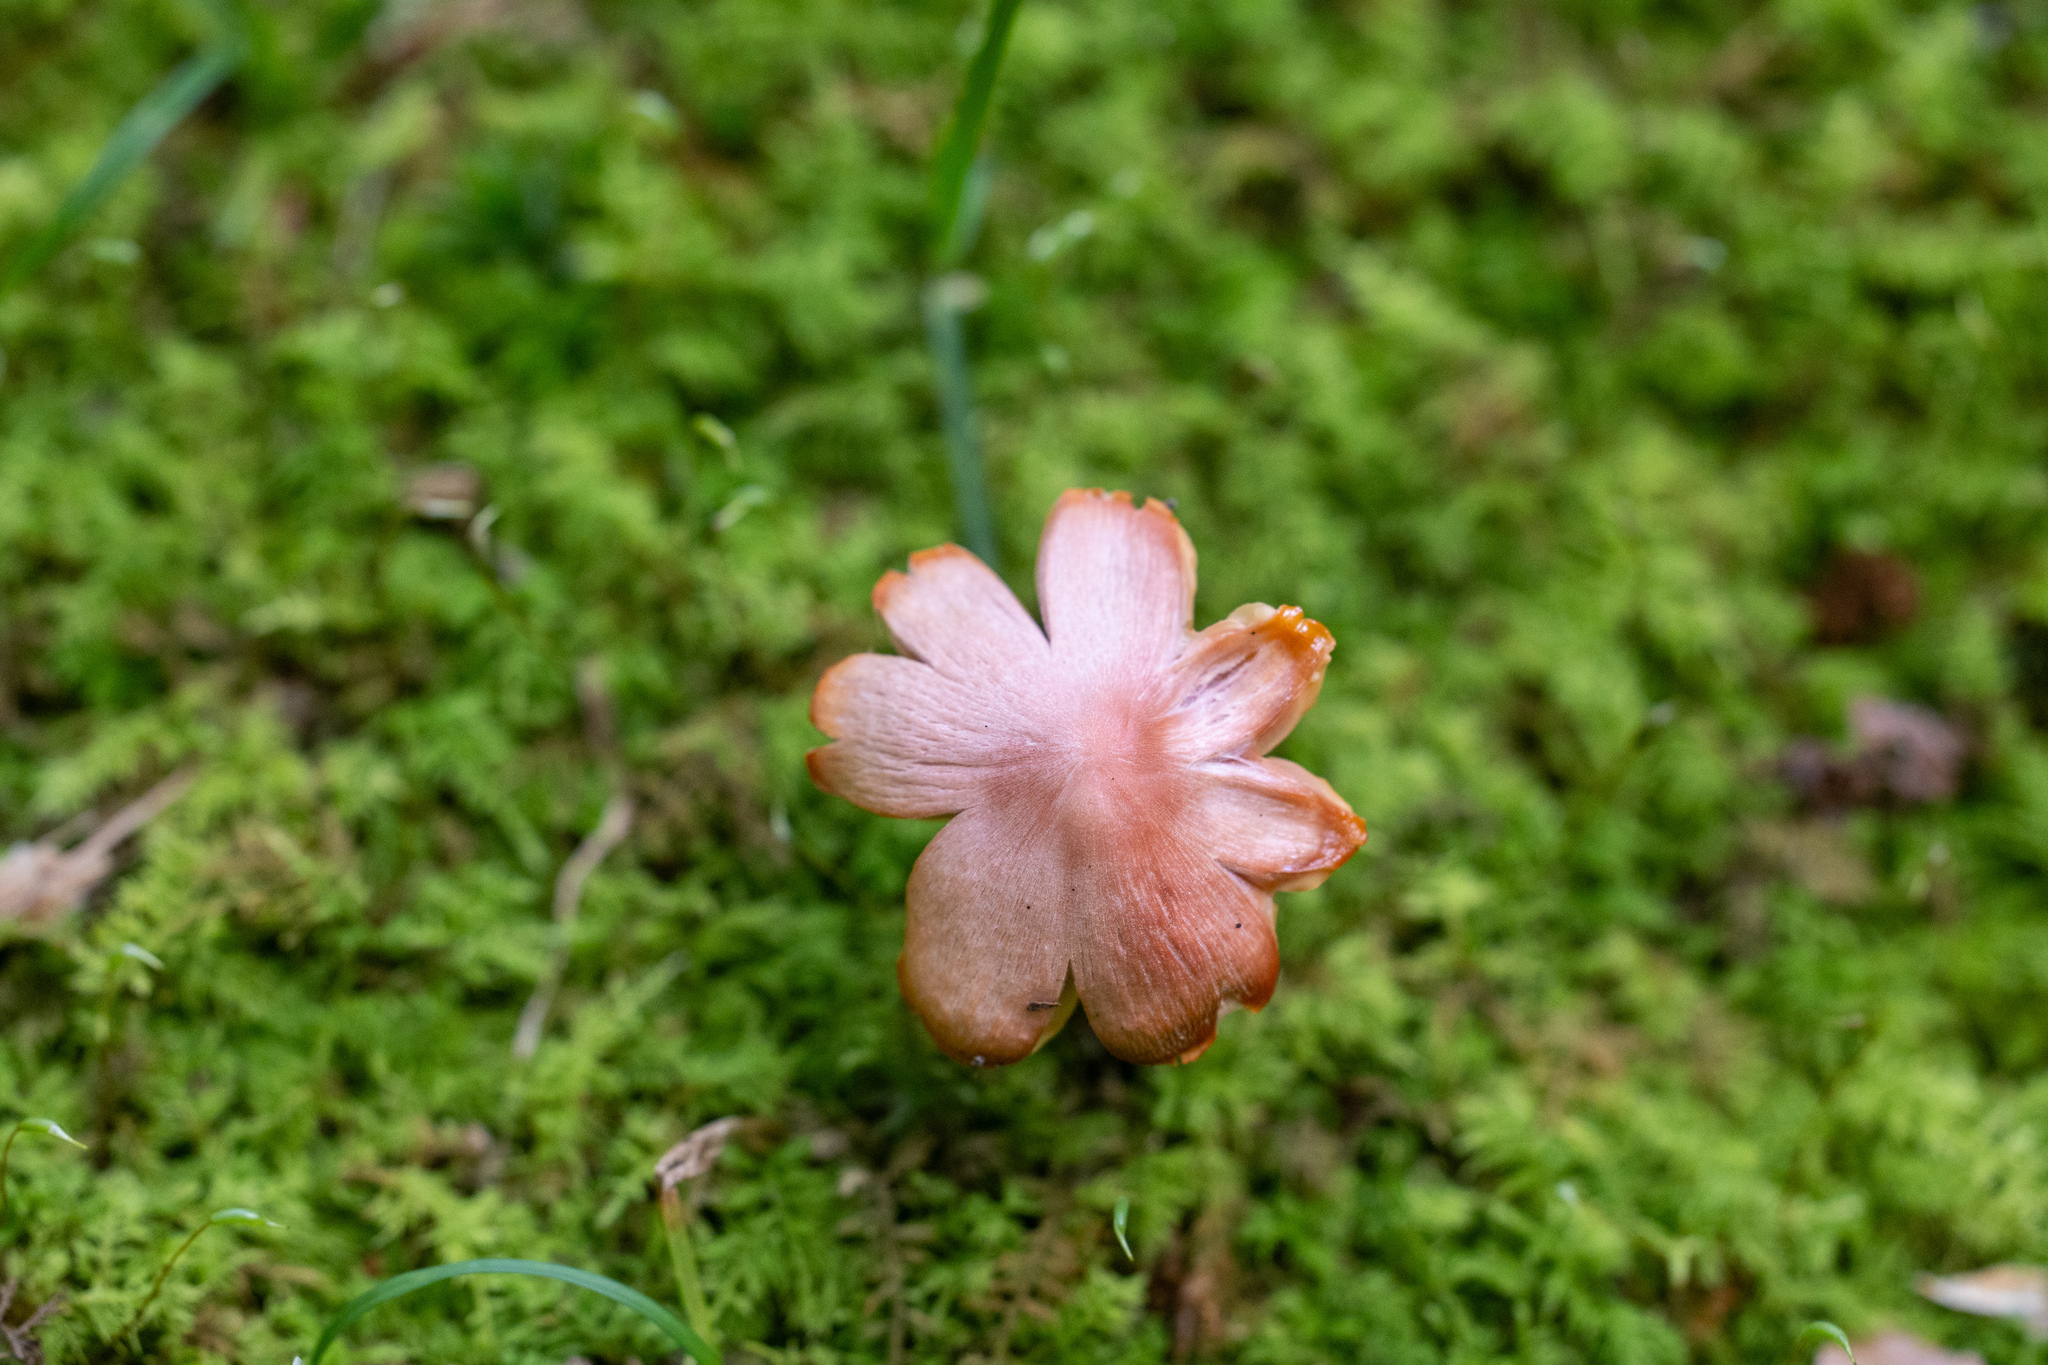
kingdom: Fungi
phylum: Basidiomycota
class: Agaricomycetes
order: Agaricales
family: Hygrophoraceae
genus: Porpolomopsis
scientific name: Porpolomopsis calyptriformis
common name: Pink waxcap
